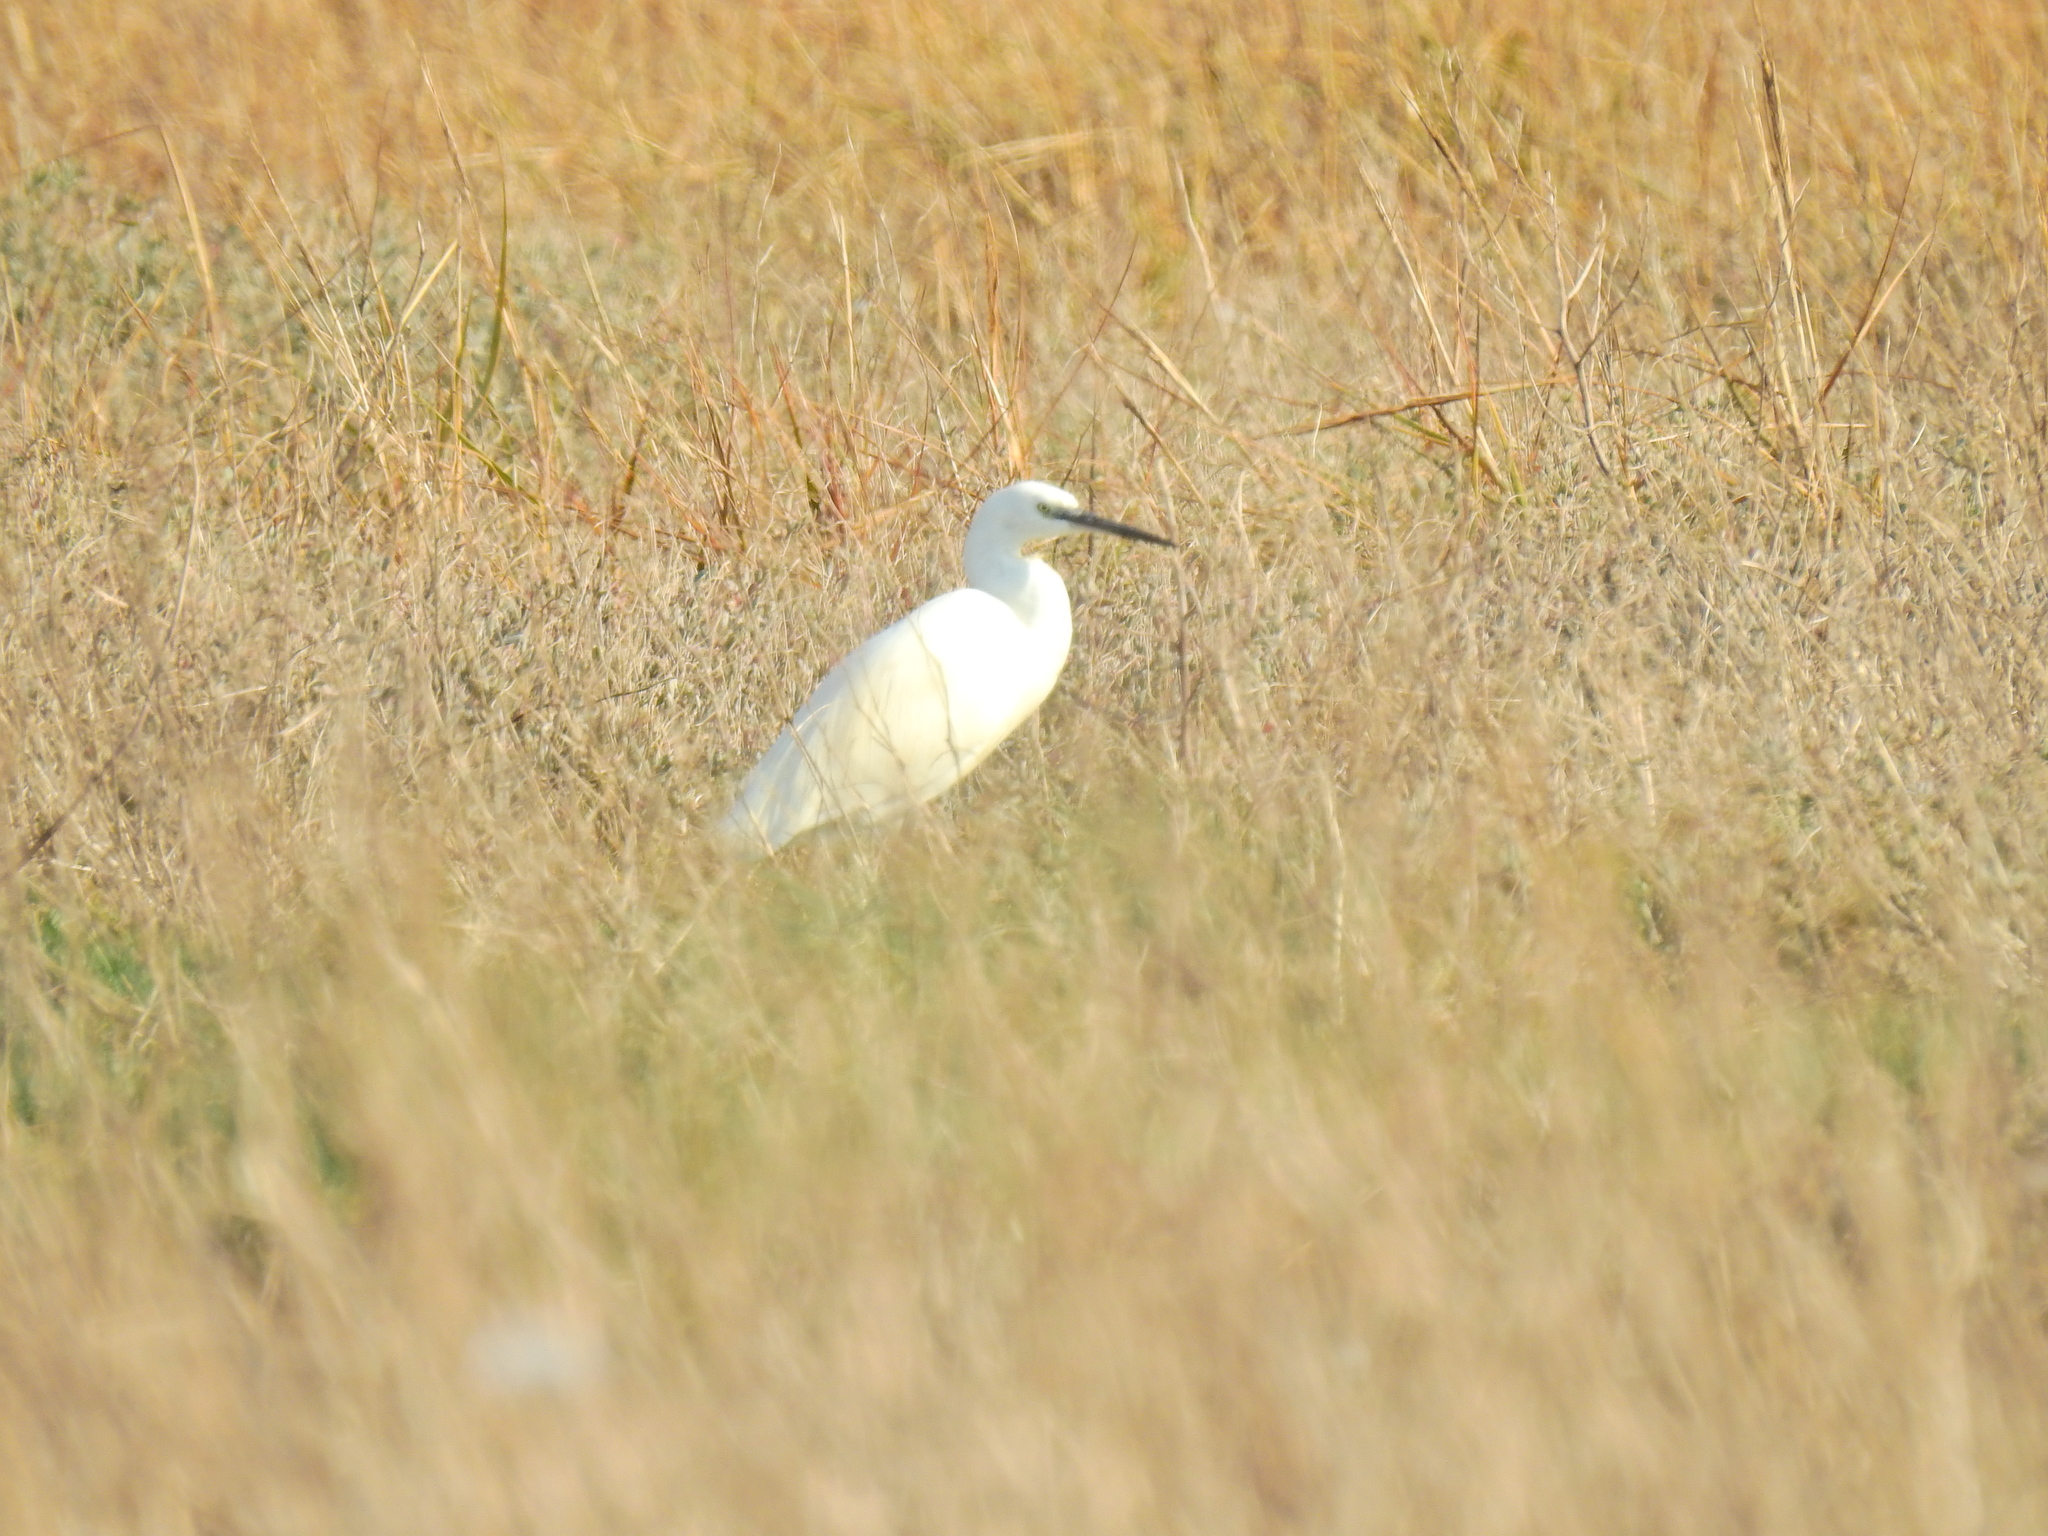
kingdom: Animalia
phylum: Chordata
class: Aves
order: Pelecaniformes
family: Ardeidae
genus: Egretta
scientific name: Egretta garzetta
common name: Little egret
